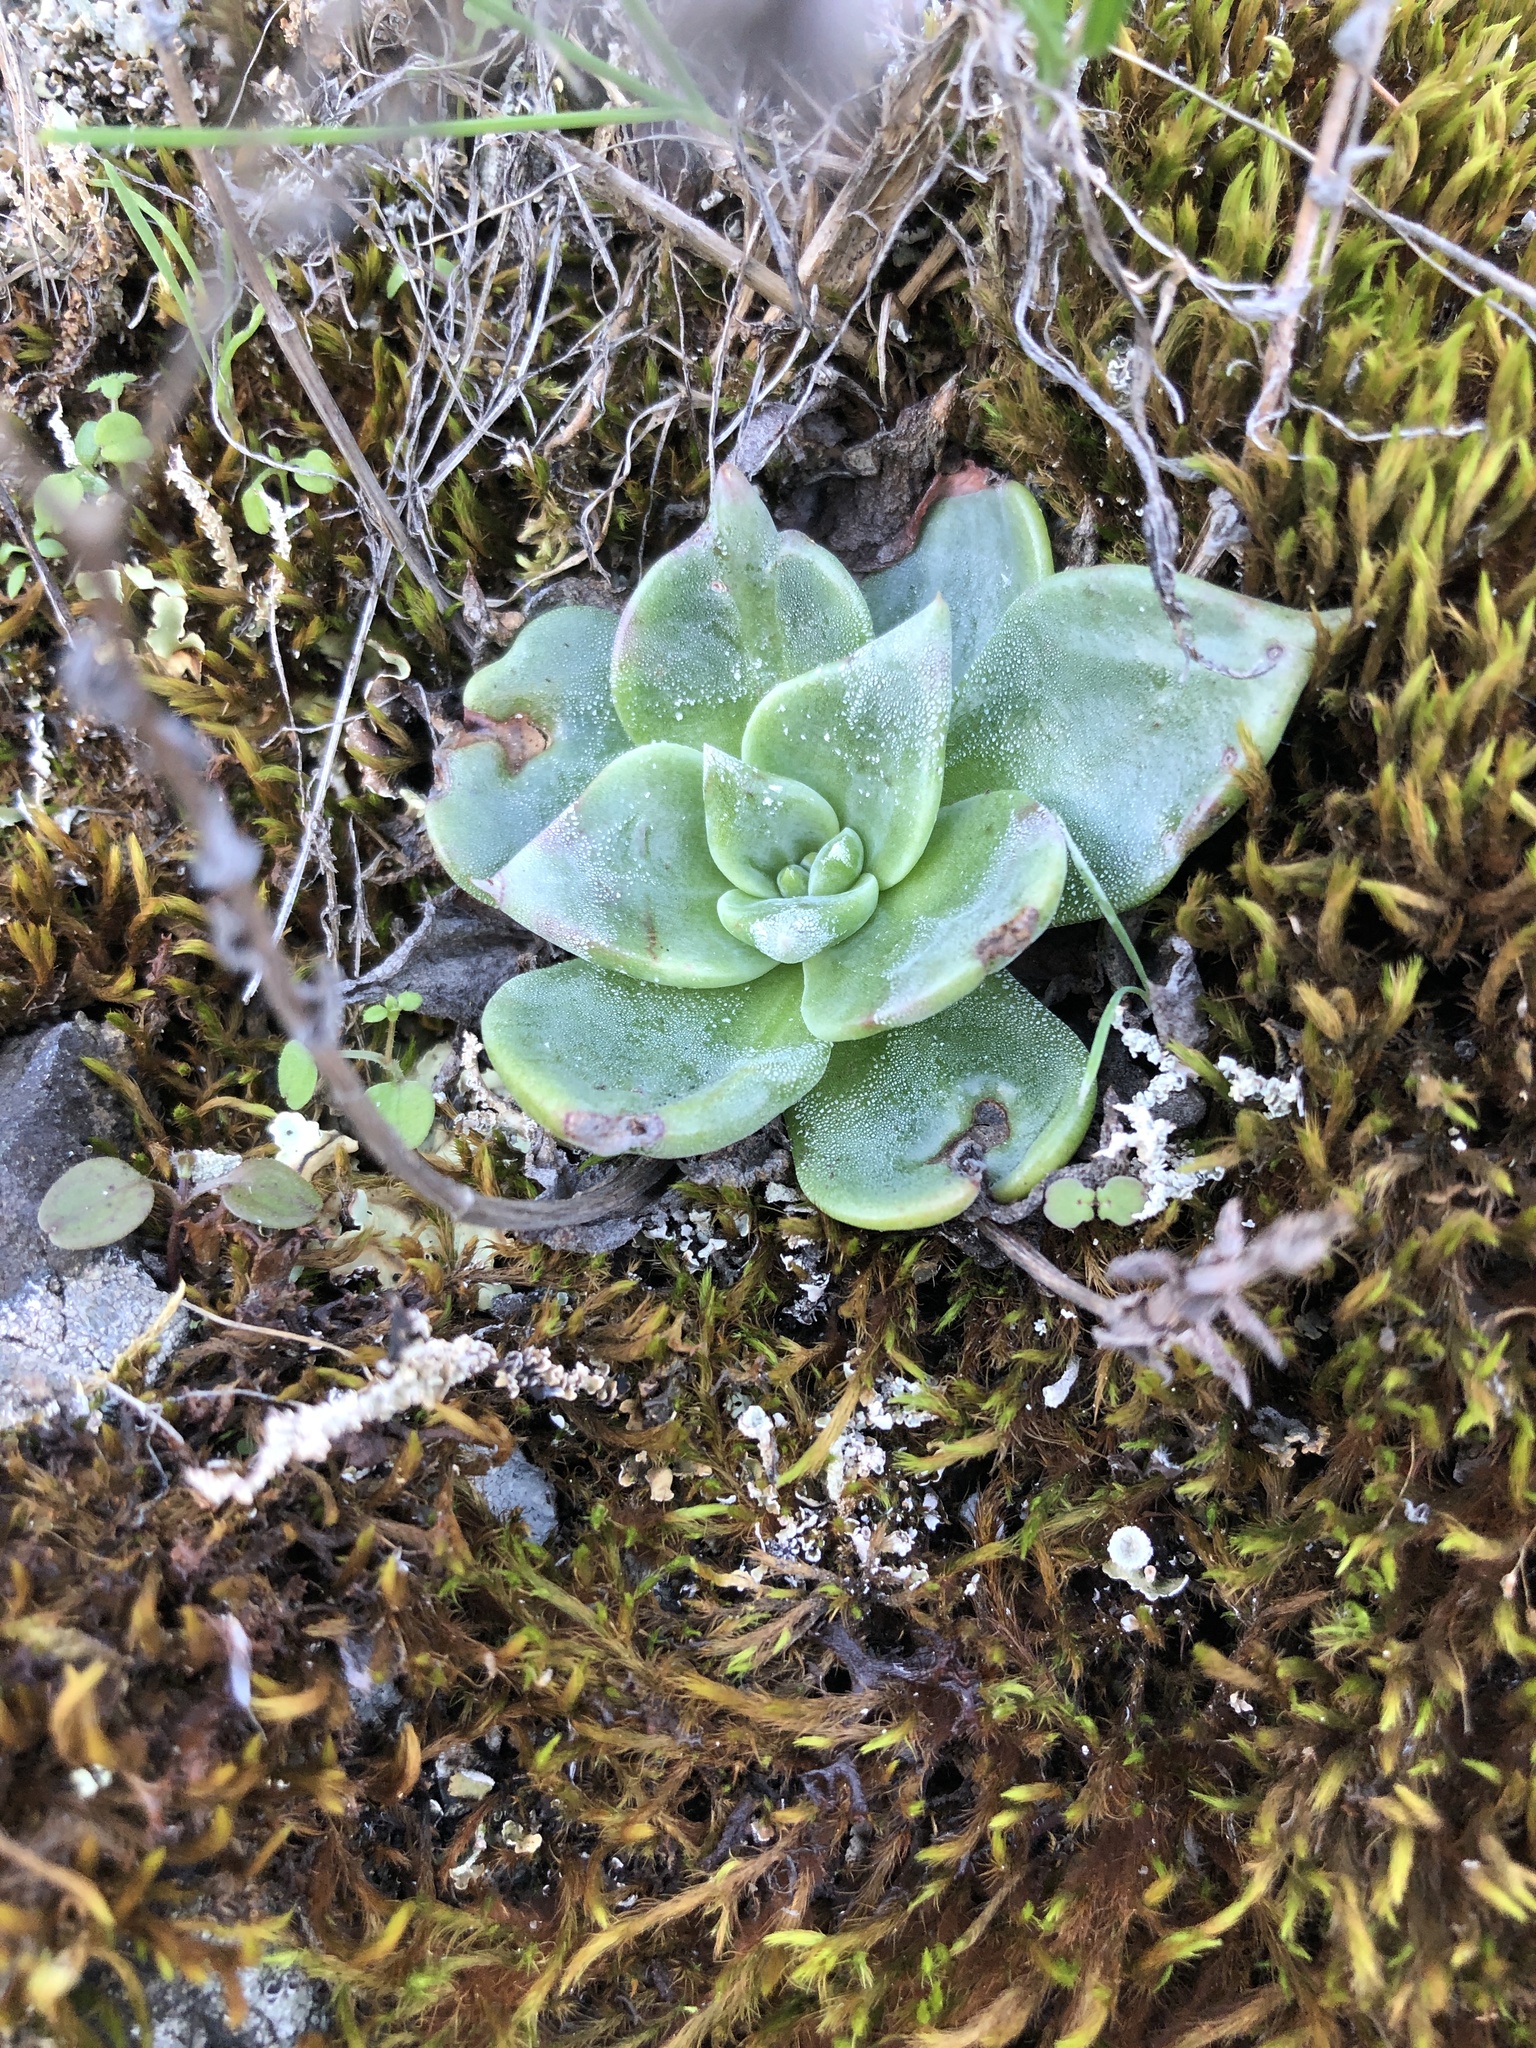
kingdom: Plantae
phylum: Tracheophyta
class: Magnoliopsida
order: Saxifragales
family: Crassulaceae
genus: Dudleya
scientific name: Dudleya cymosa
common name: Canyon dudleya
